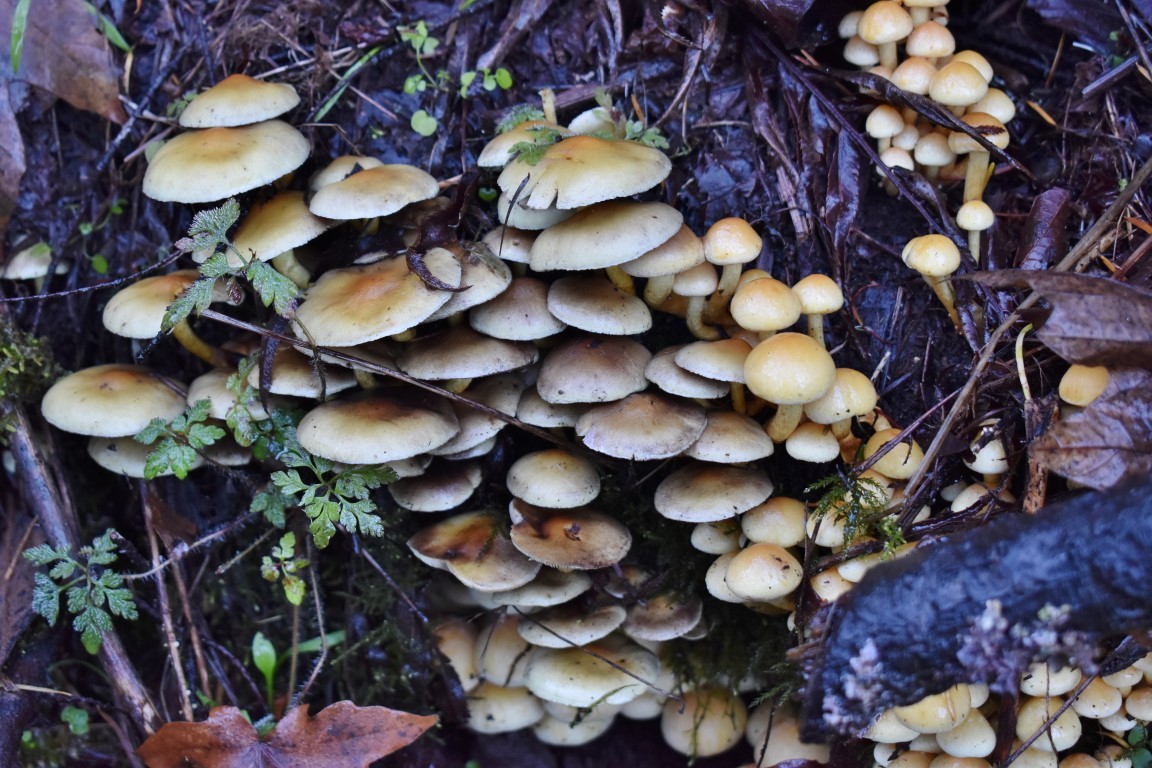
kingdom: Fungi
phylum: Basidiomycota
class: Agaricomycetes
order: Agaricales
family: Strophariaceae
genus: Hypholoma
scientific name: Hypholoma fasciculare
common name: Sulphur tuft
